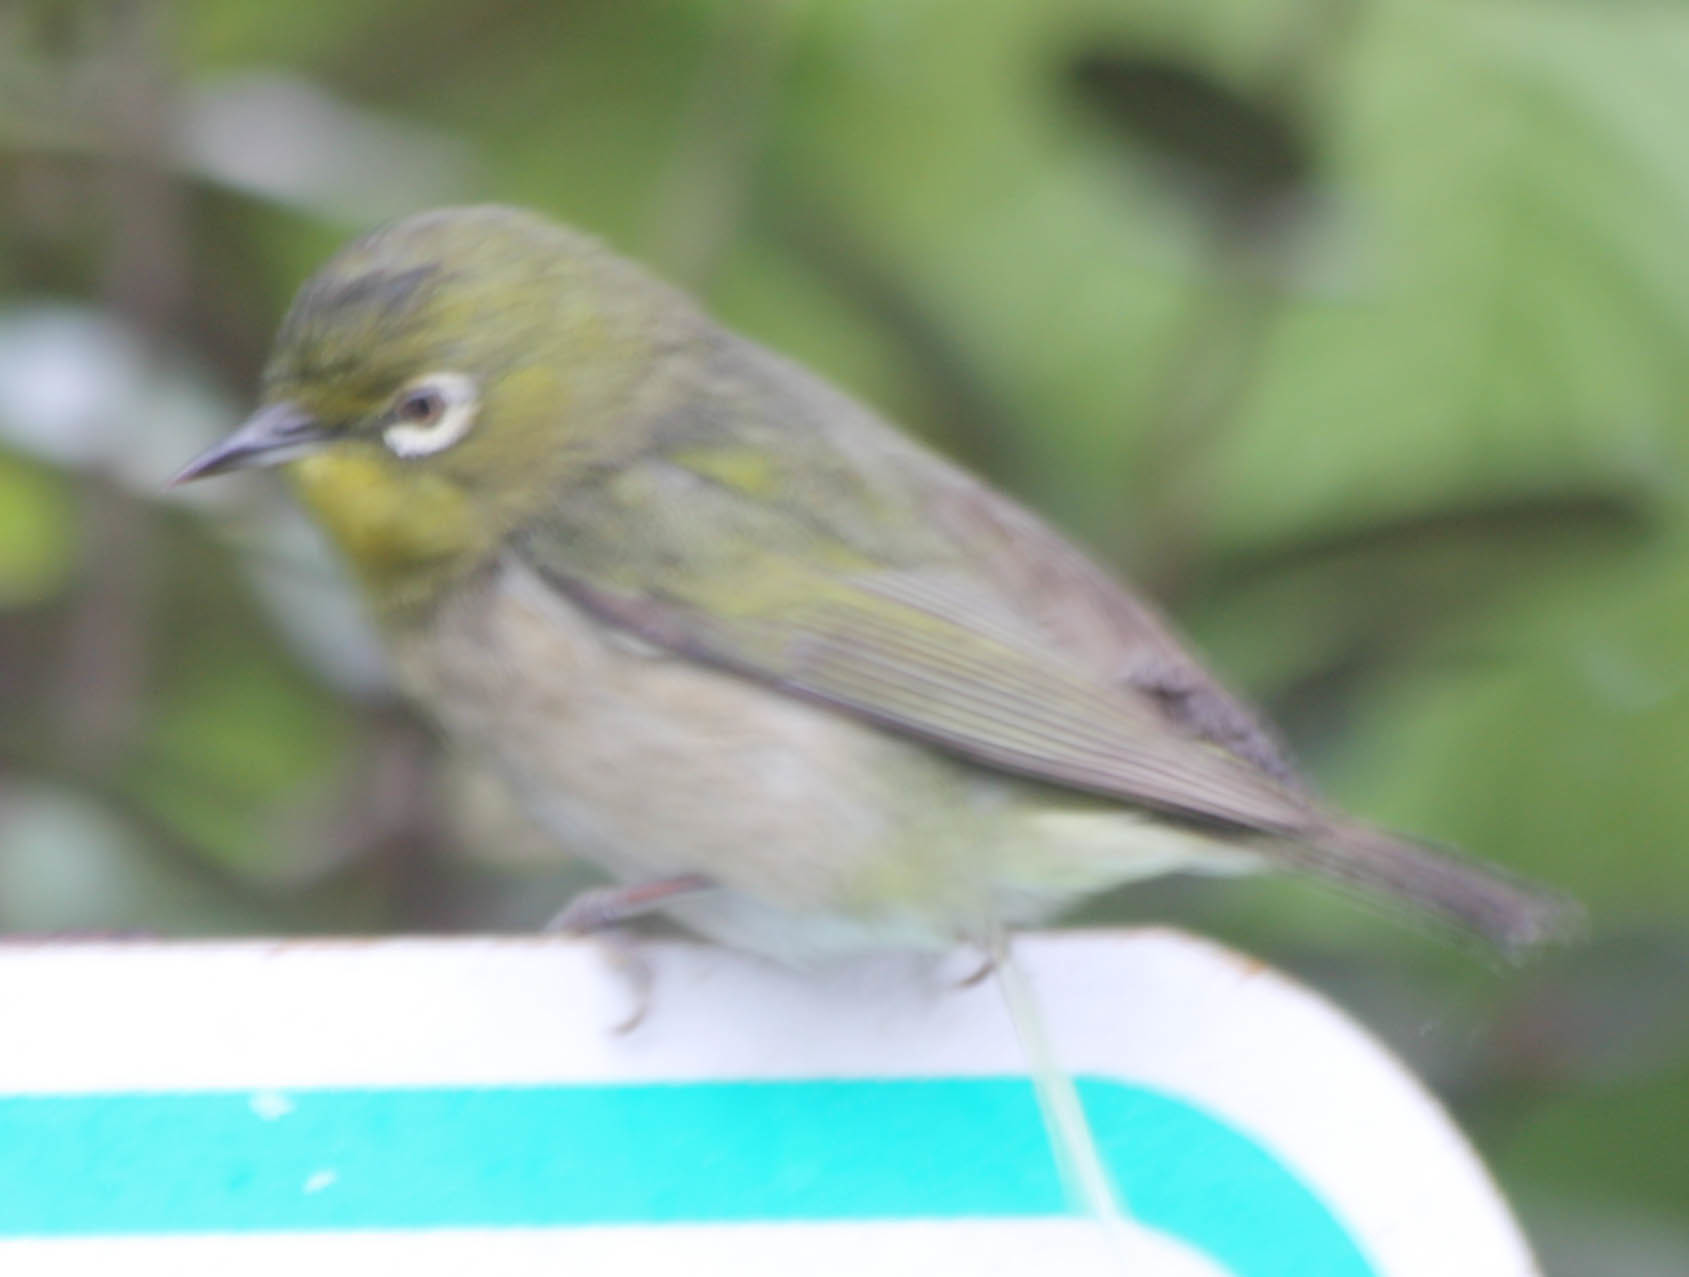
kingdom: Animalia
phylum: Chordata
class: Aves
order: Passeriformes
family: Zosteropidae
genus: Zosterops
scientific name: Zosterops japonicus
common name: Japanese white-eye
